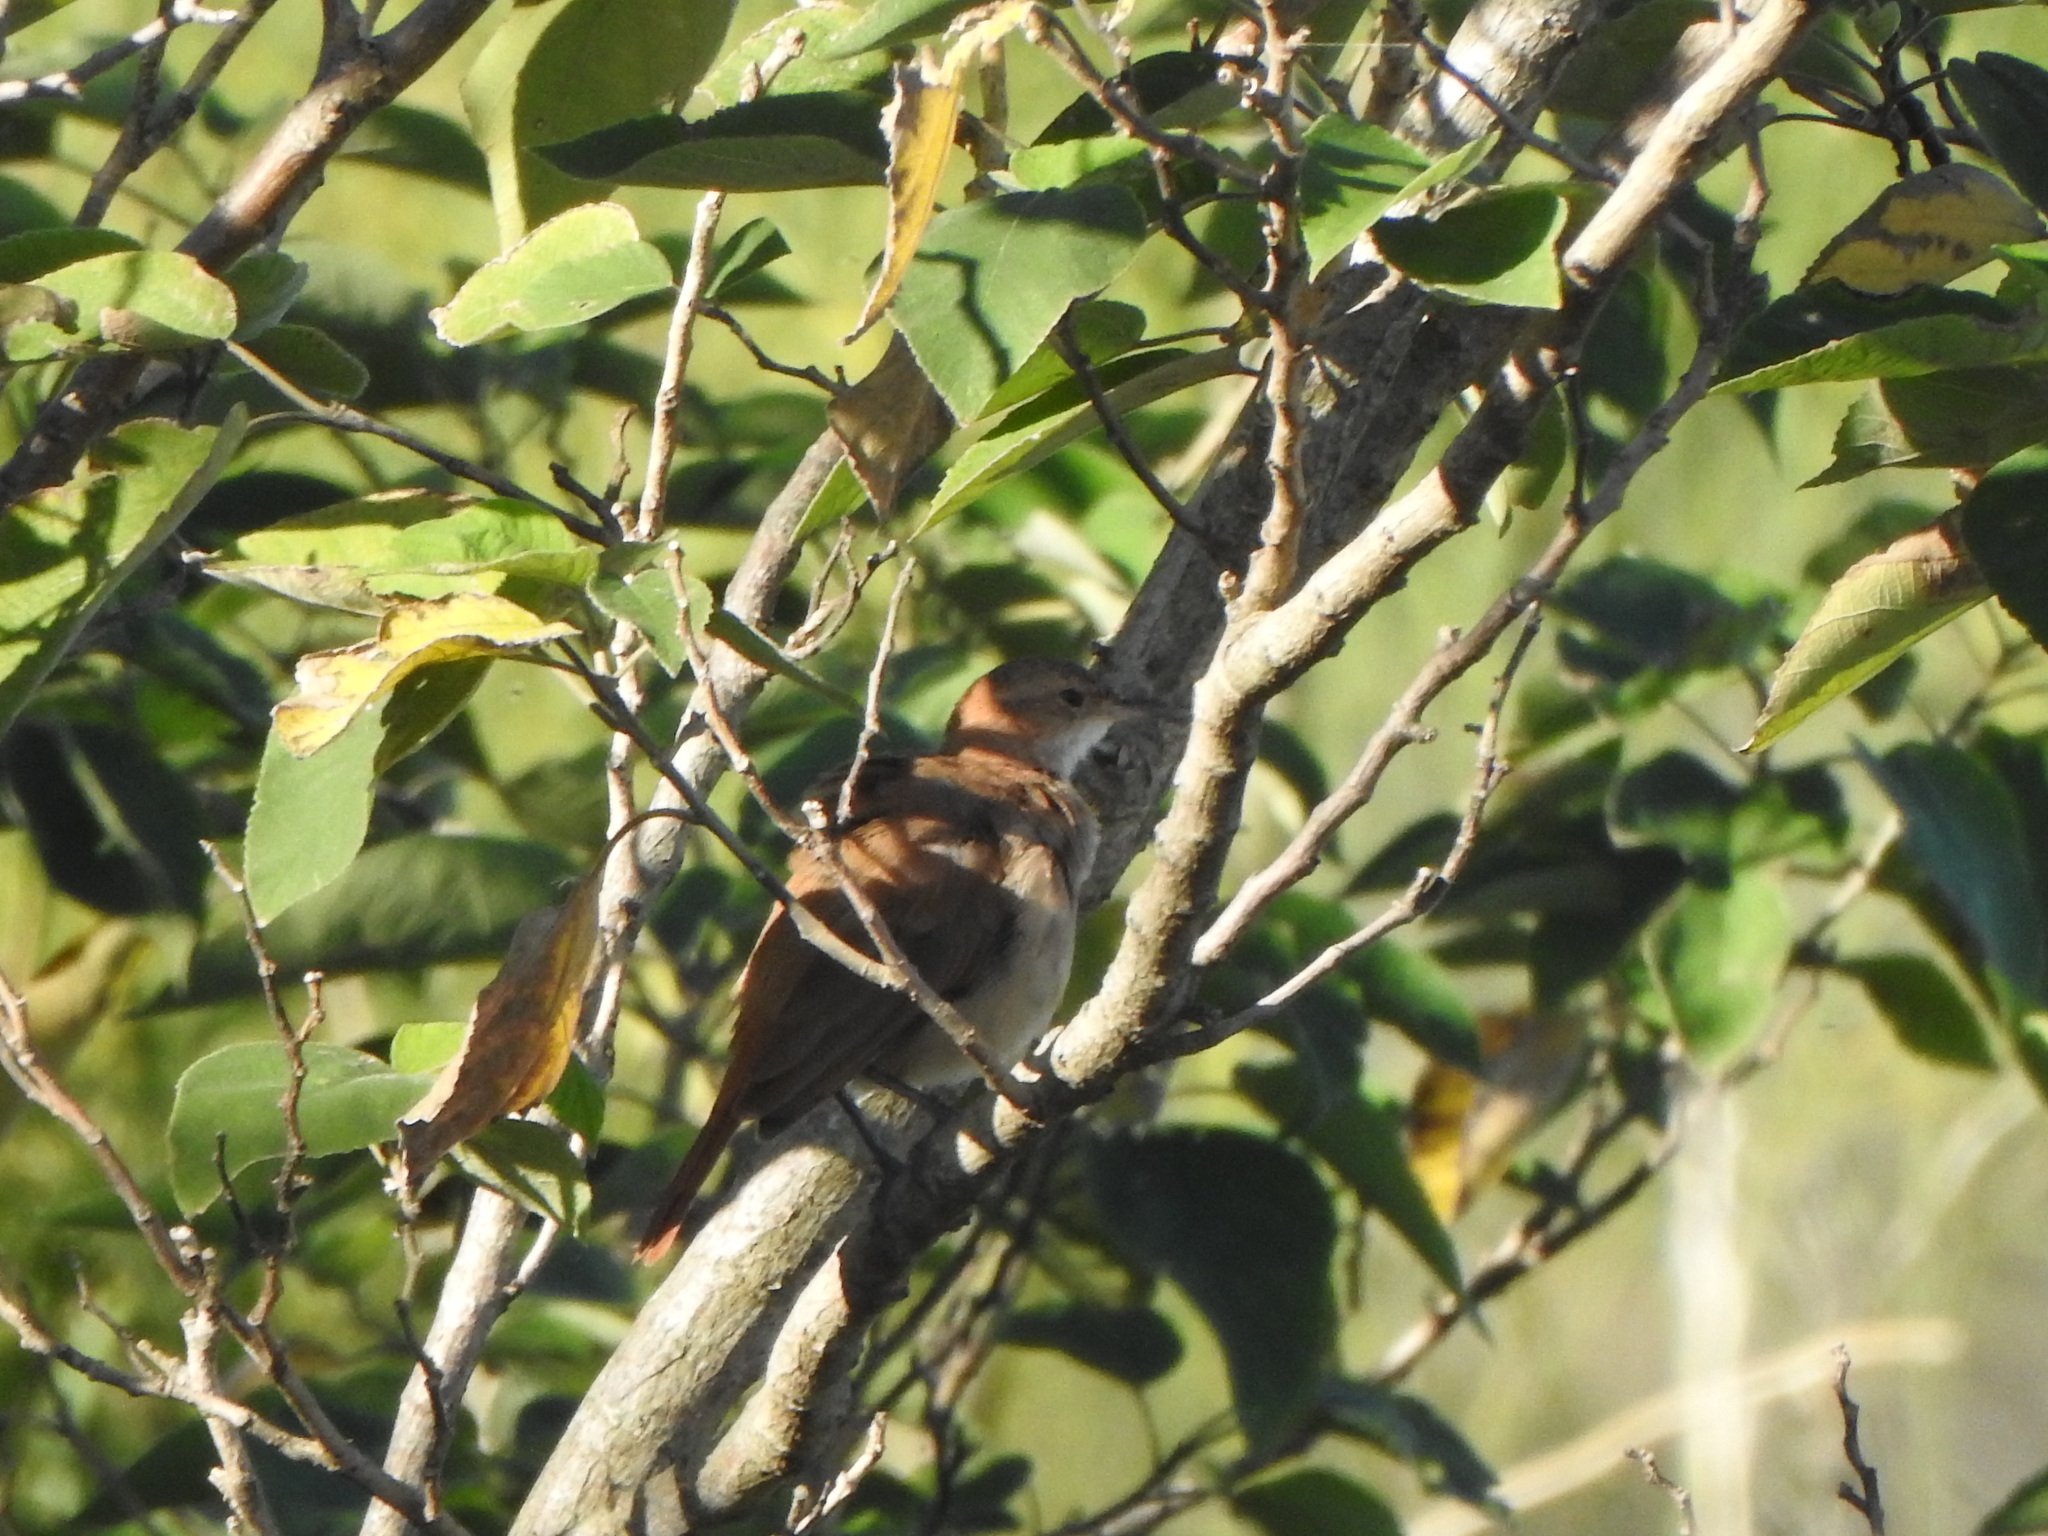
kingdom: Animalia
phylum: Chordata
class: Aves
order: Passeriformes
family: Furnariidae
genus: Furnarius
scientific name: Furnarius rufus
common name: Rufous hornero
